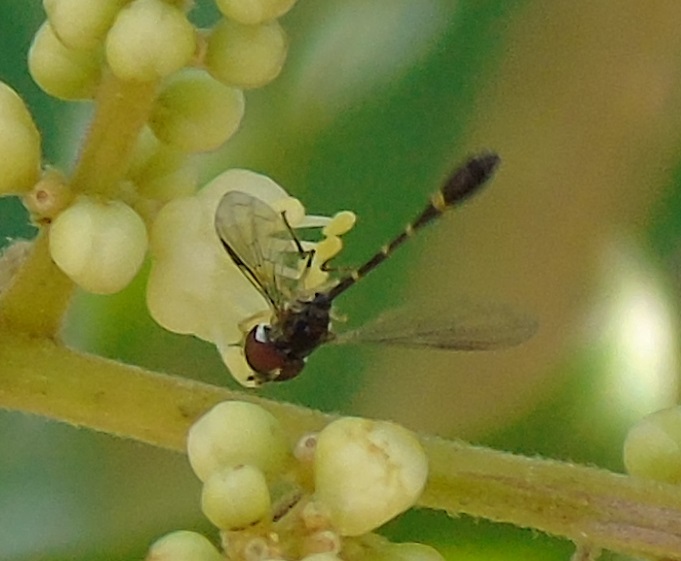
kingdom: Animalia
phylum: Arthropoda
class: Insecta
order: Diptera
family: Syrphidae
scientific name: Syrphidae
